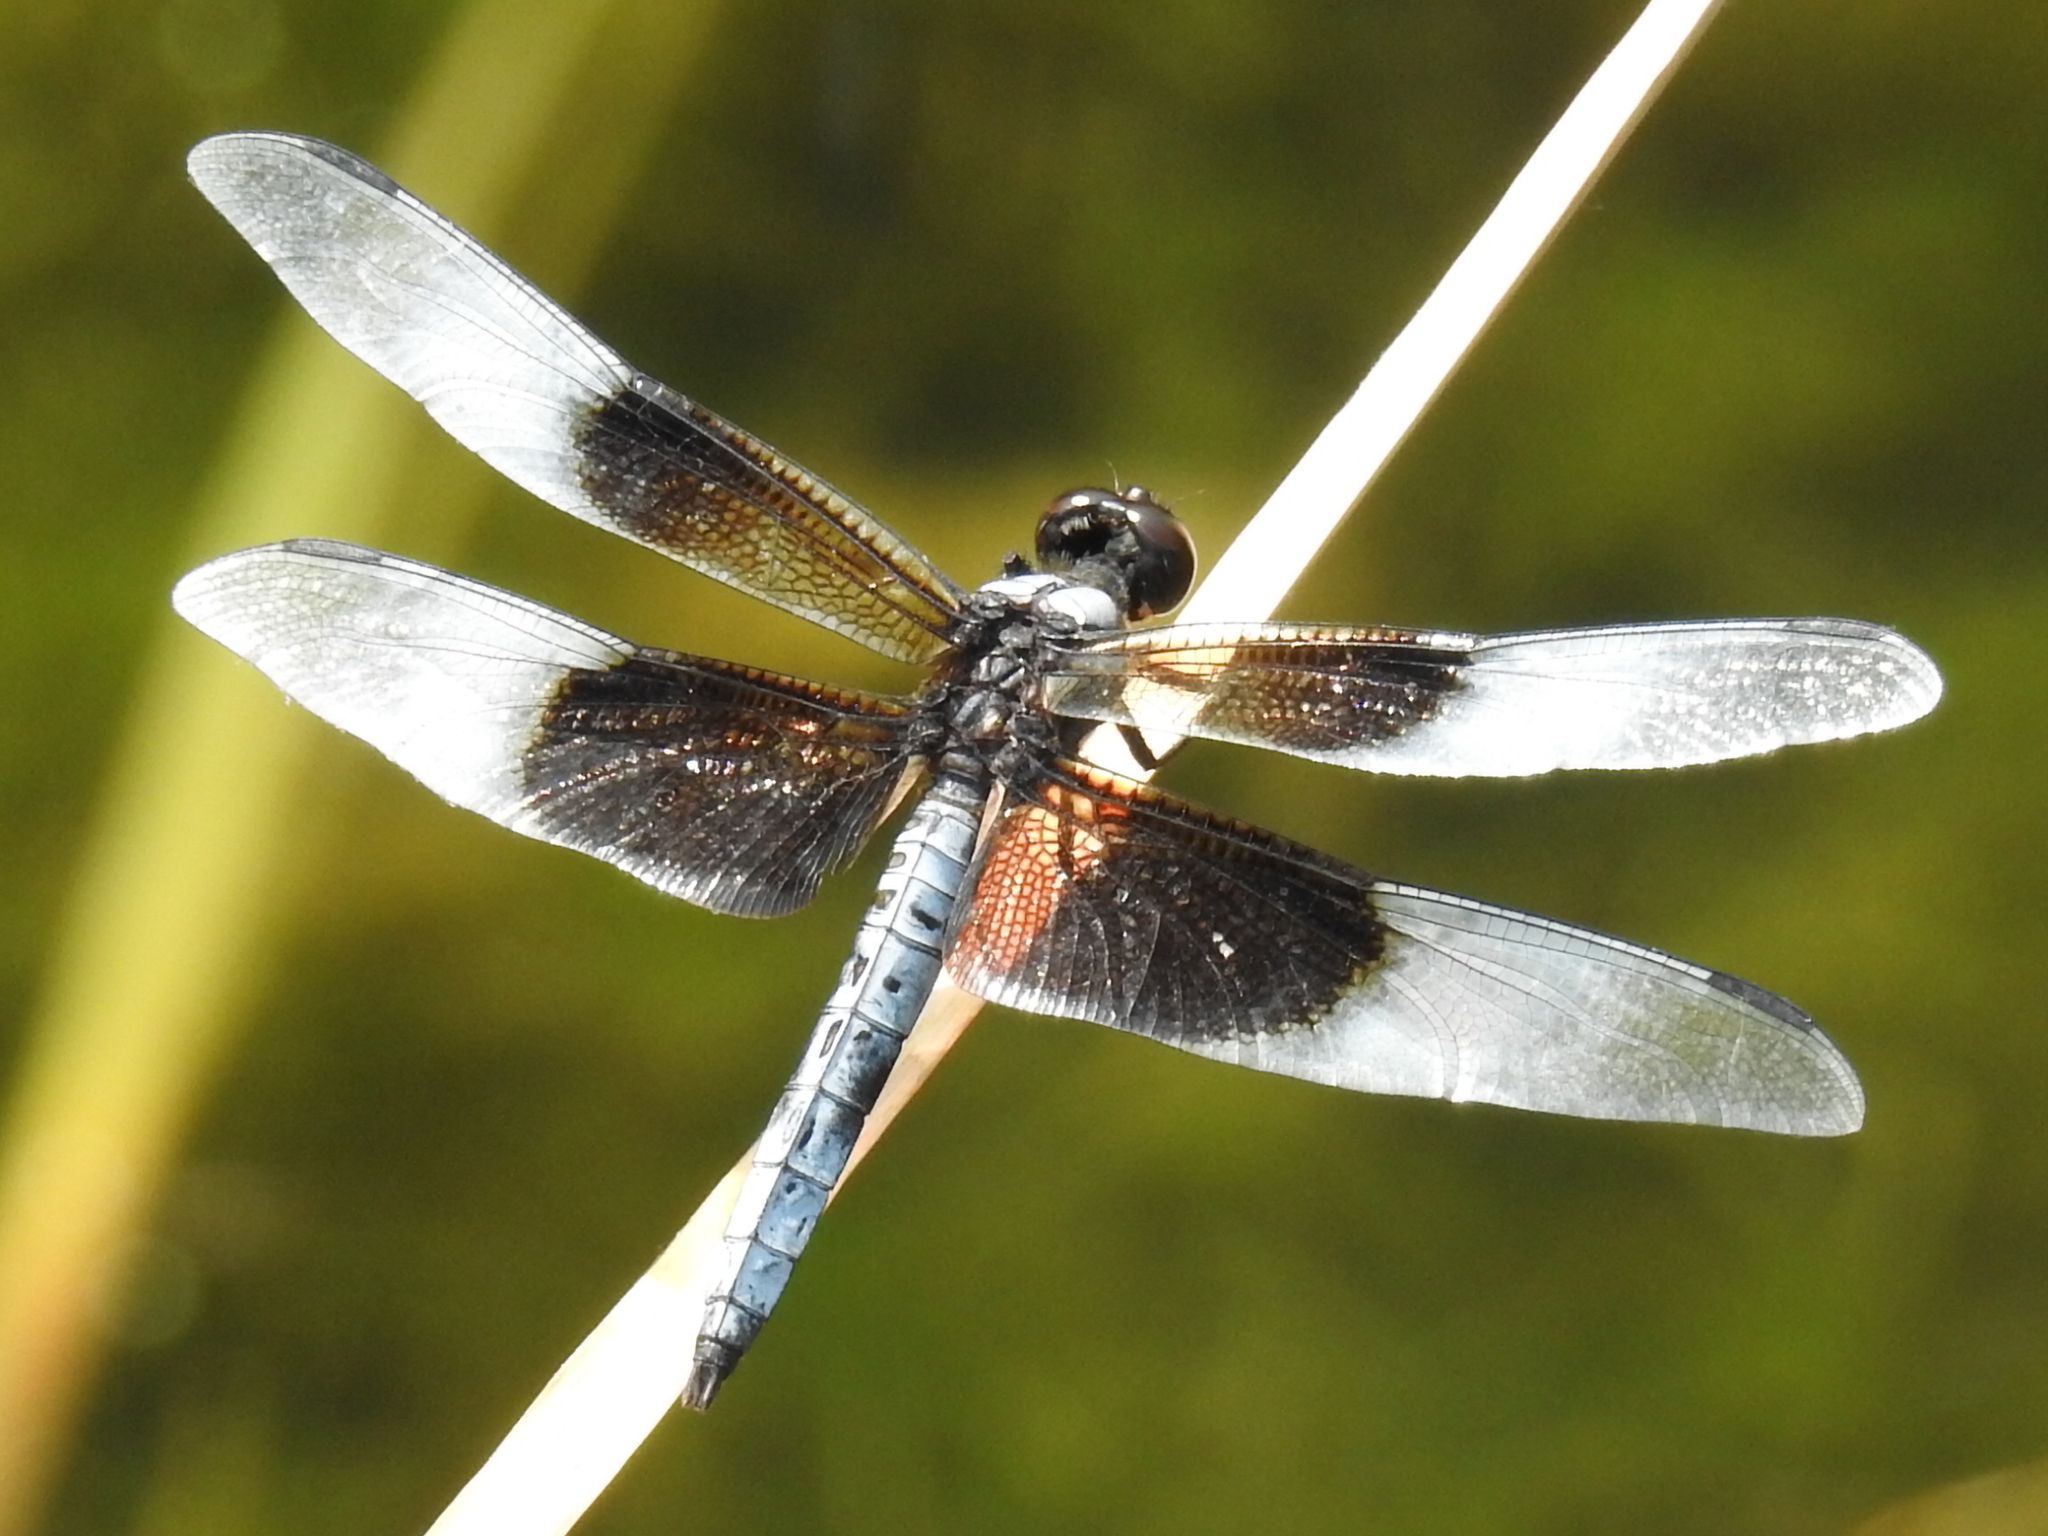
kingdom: Animalia
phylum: Arthropoda
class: Insecta
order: Odonata
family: Libellulidae
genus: Libellula
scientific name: Libellula luctuosa
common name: Widow skimmer
